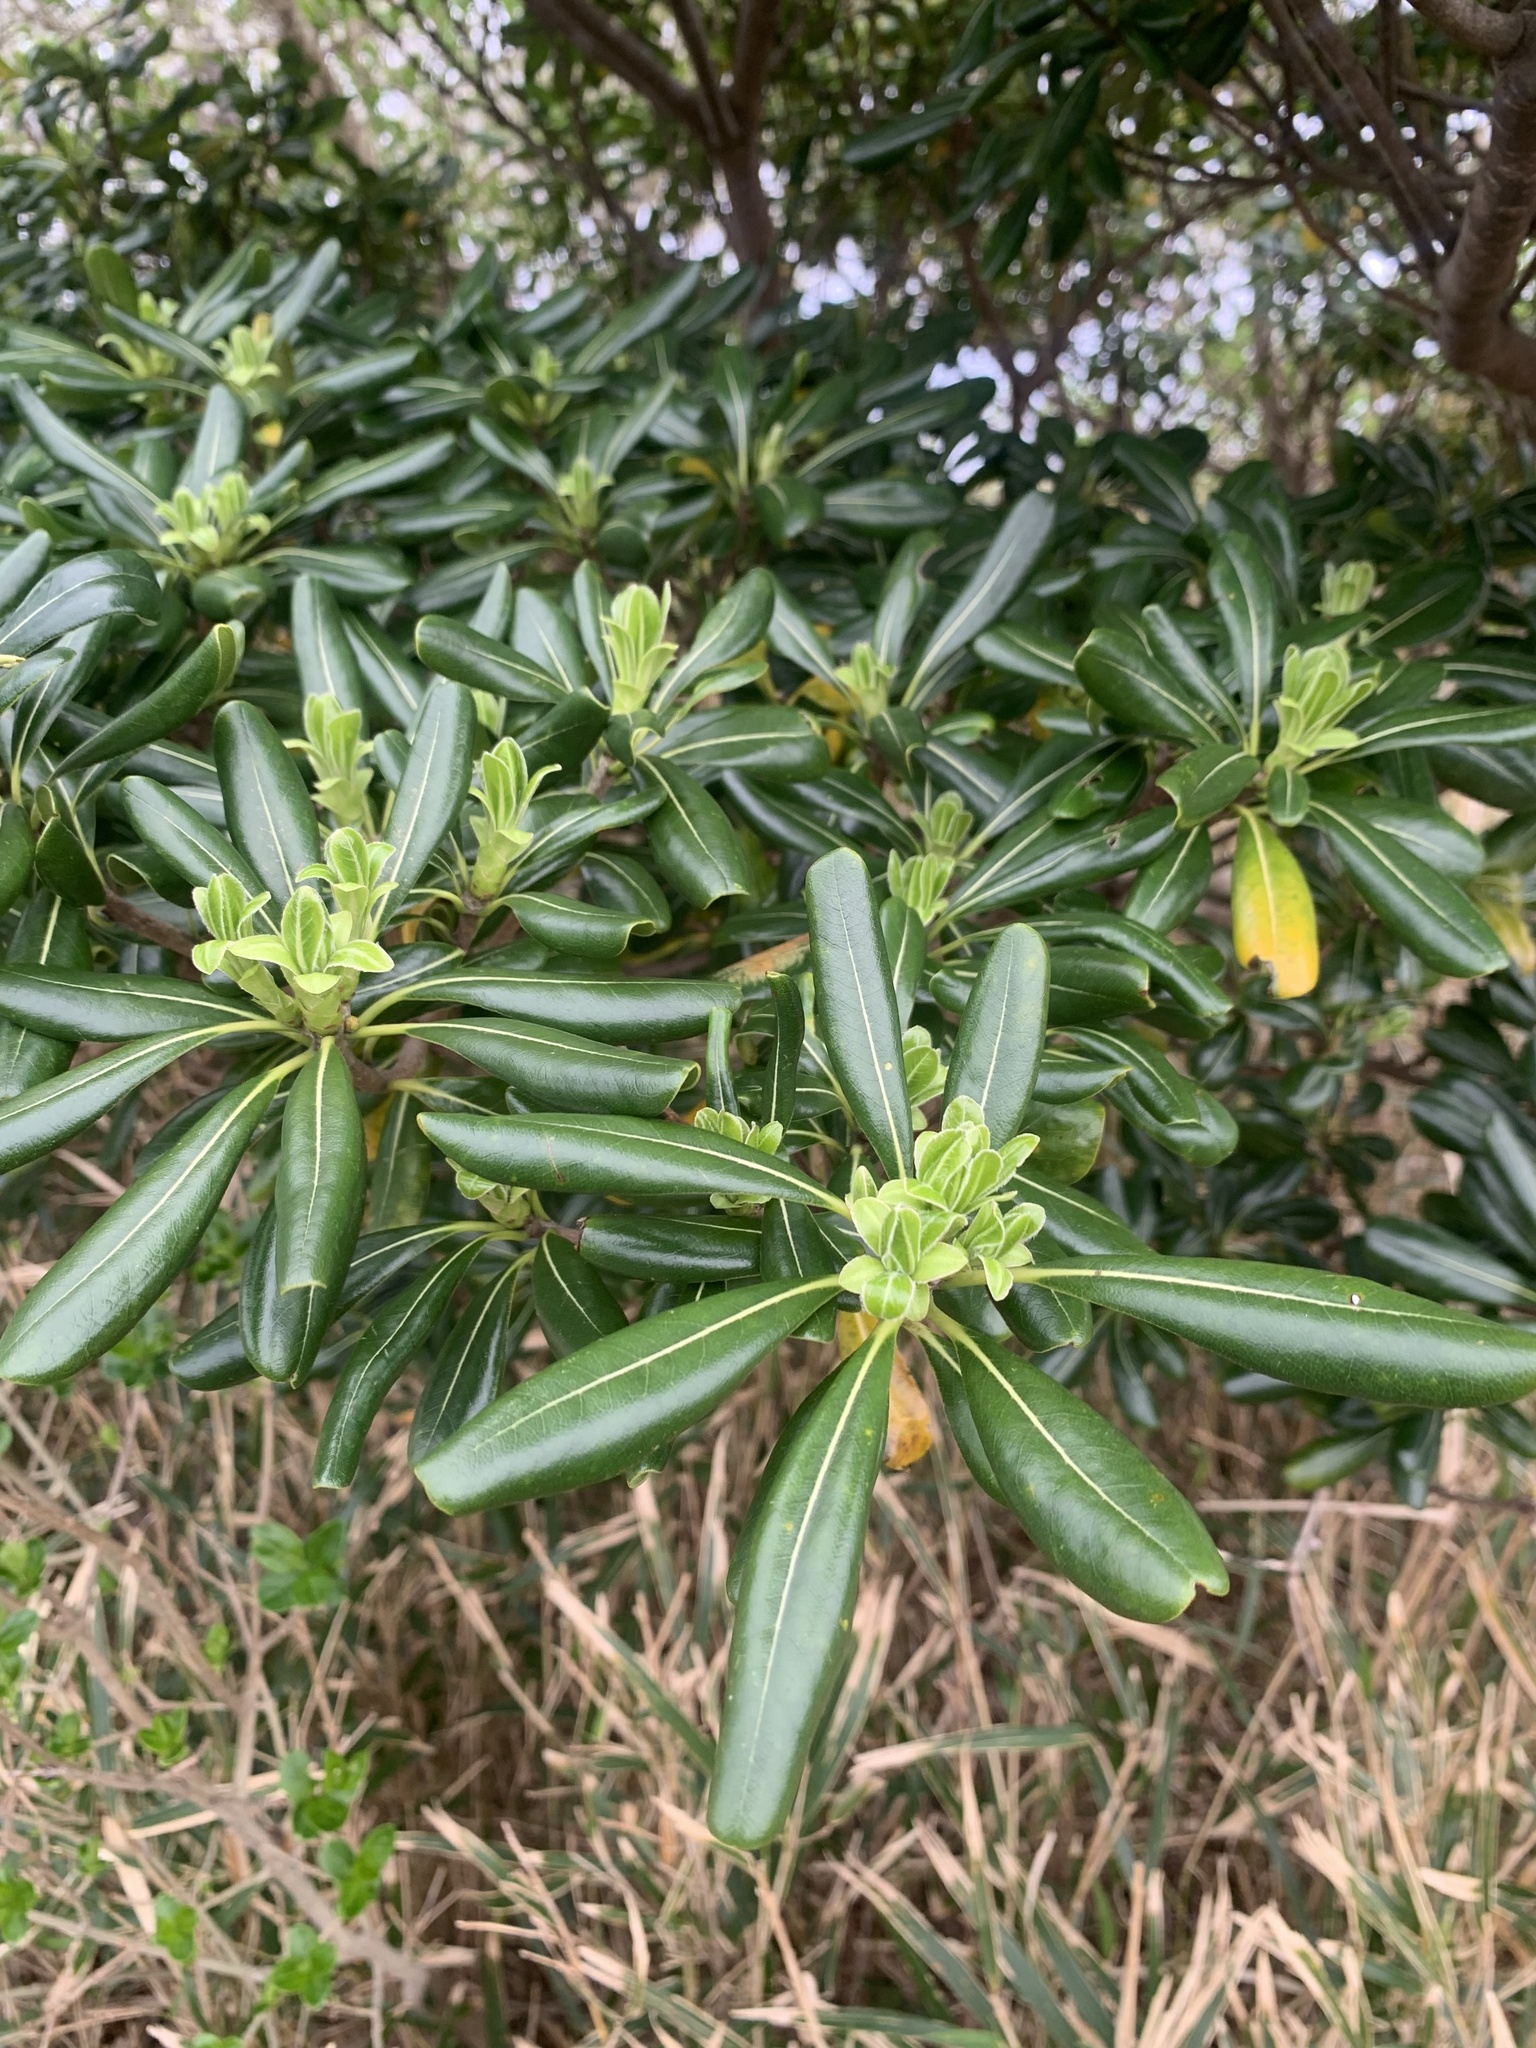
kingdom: Plantae
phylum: Tracheophyta
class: Magnoliopsida
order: Apiales
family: Pittosporaceae
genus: Pittosporum
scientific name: Pittosporum tobira
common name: Japanese cheesewood
